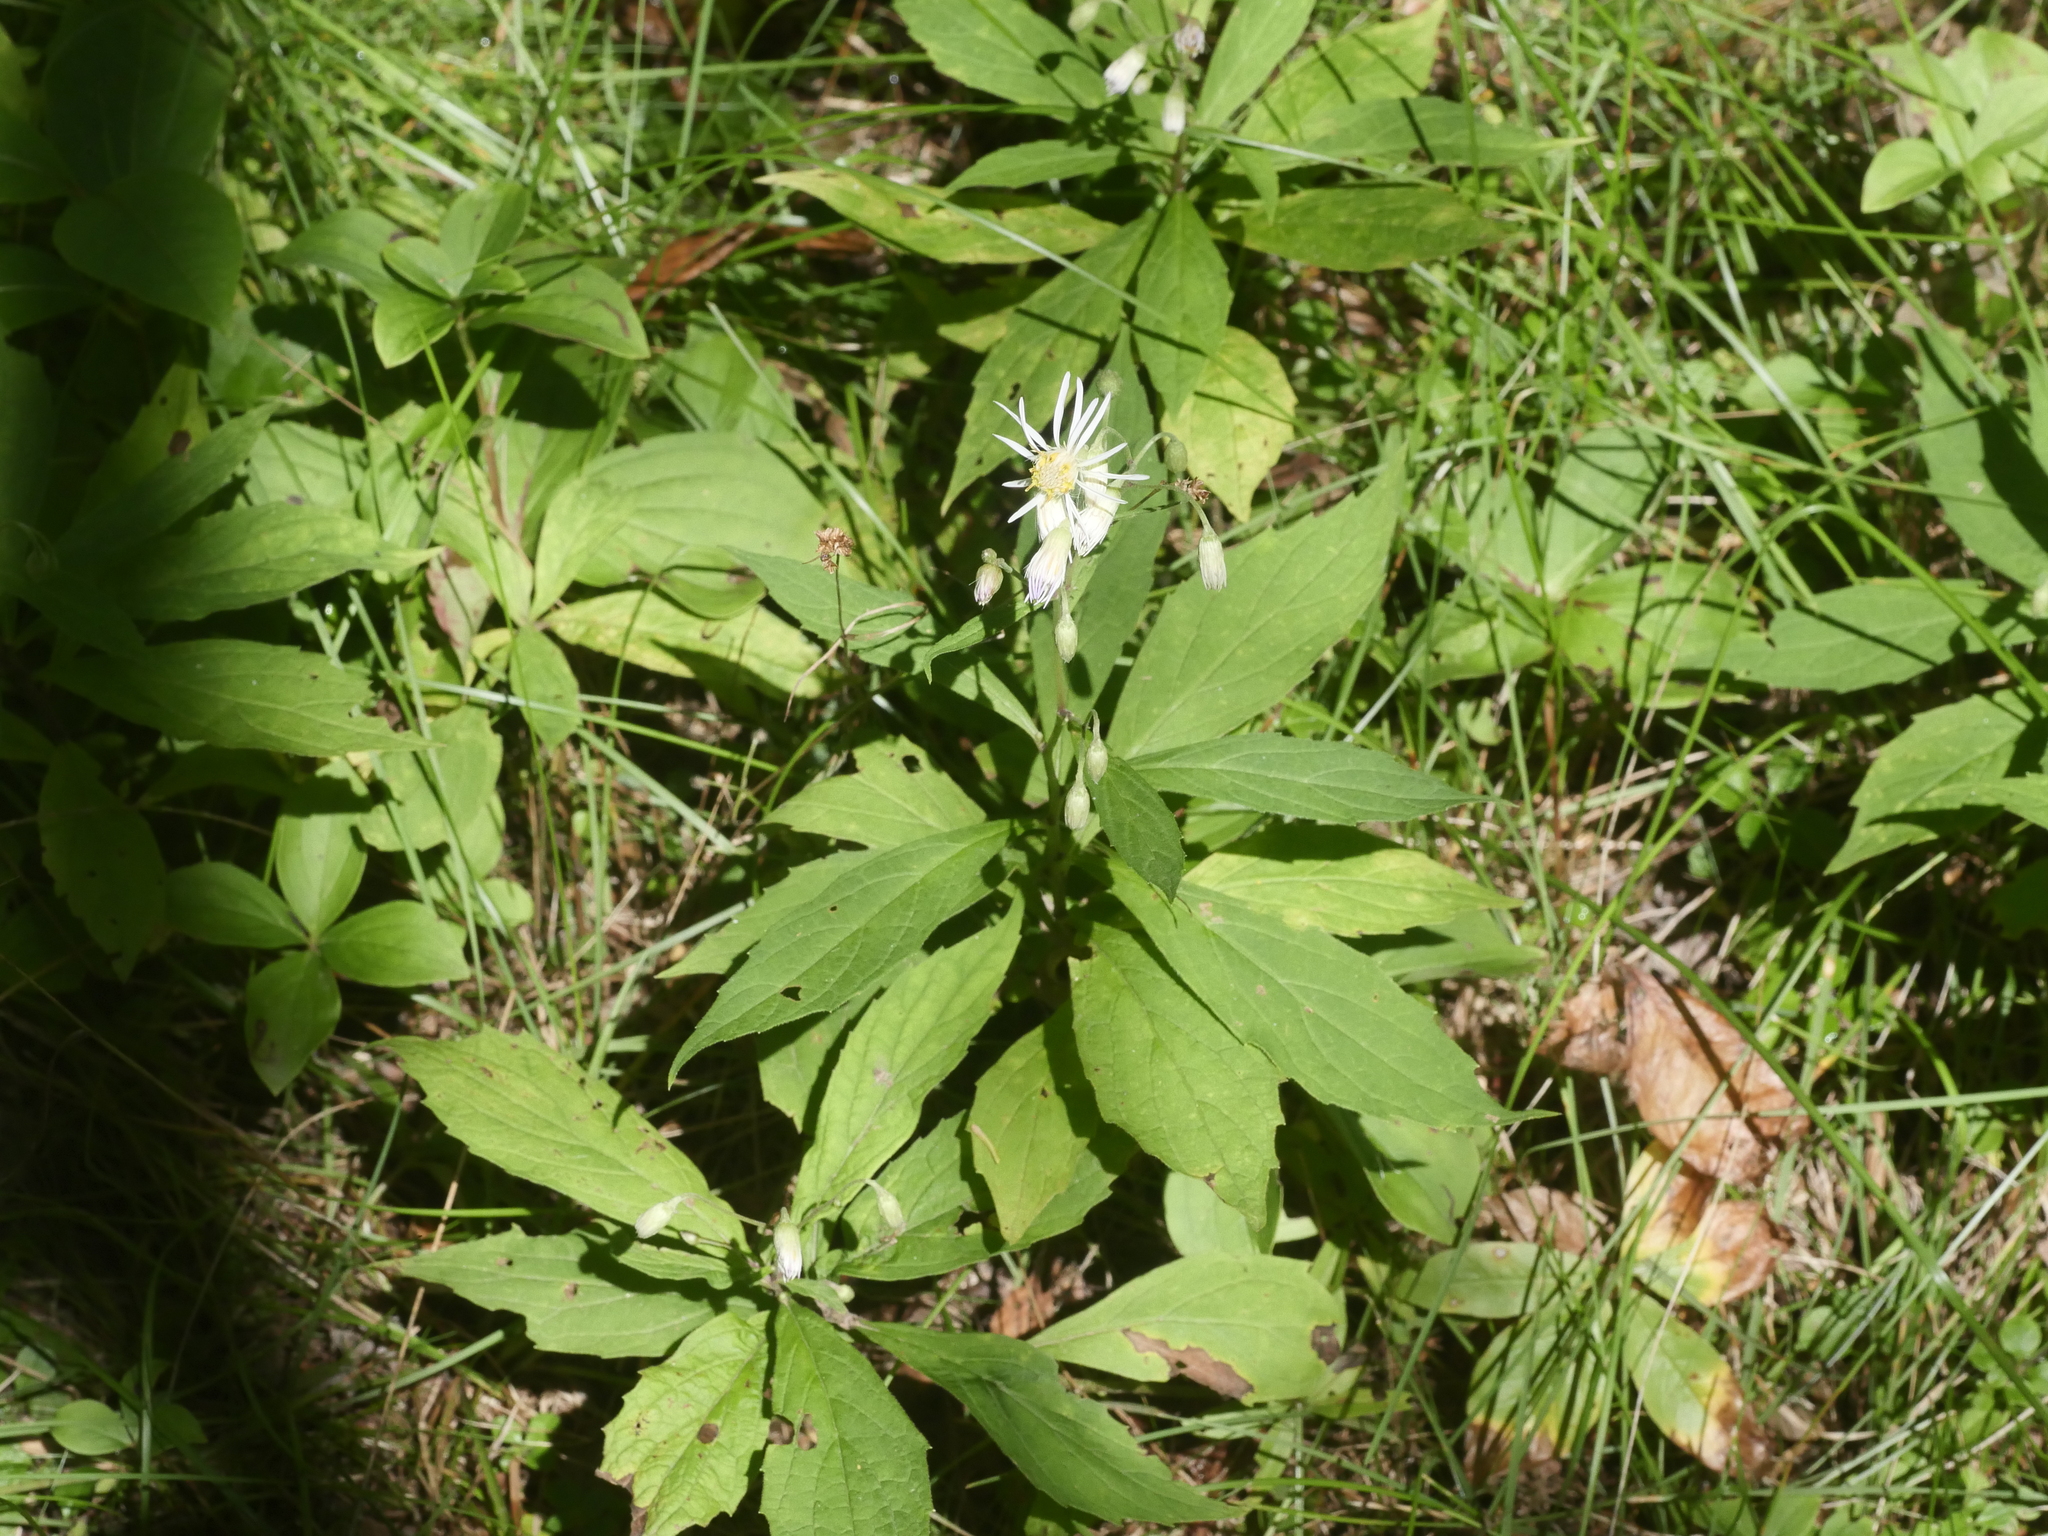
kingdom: Plantae
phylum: Tracheophyta
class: Magnoliopsida
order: Asterales
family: Asteraceae
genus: Oclemena
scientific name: Oclemena acuminata
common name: Mountain aster
